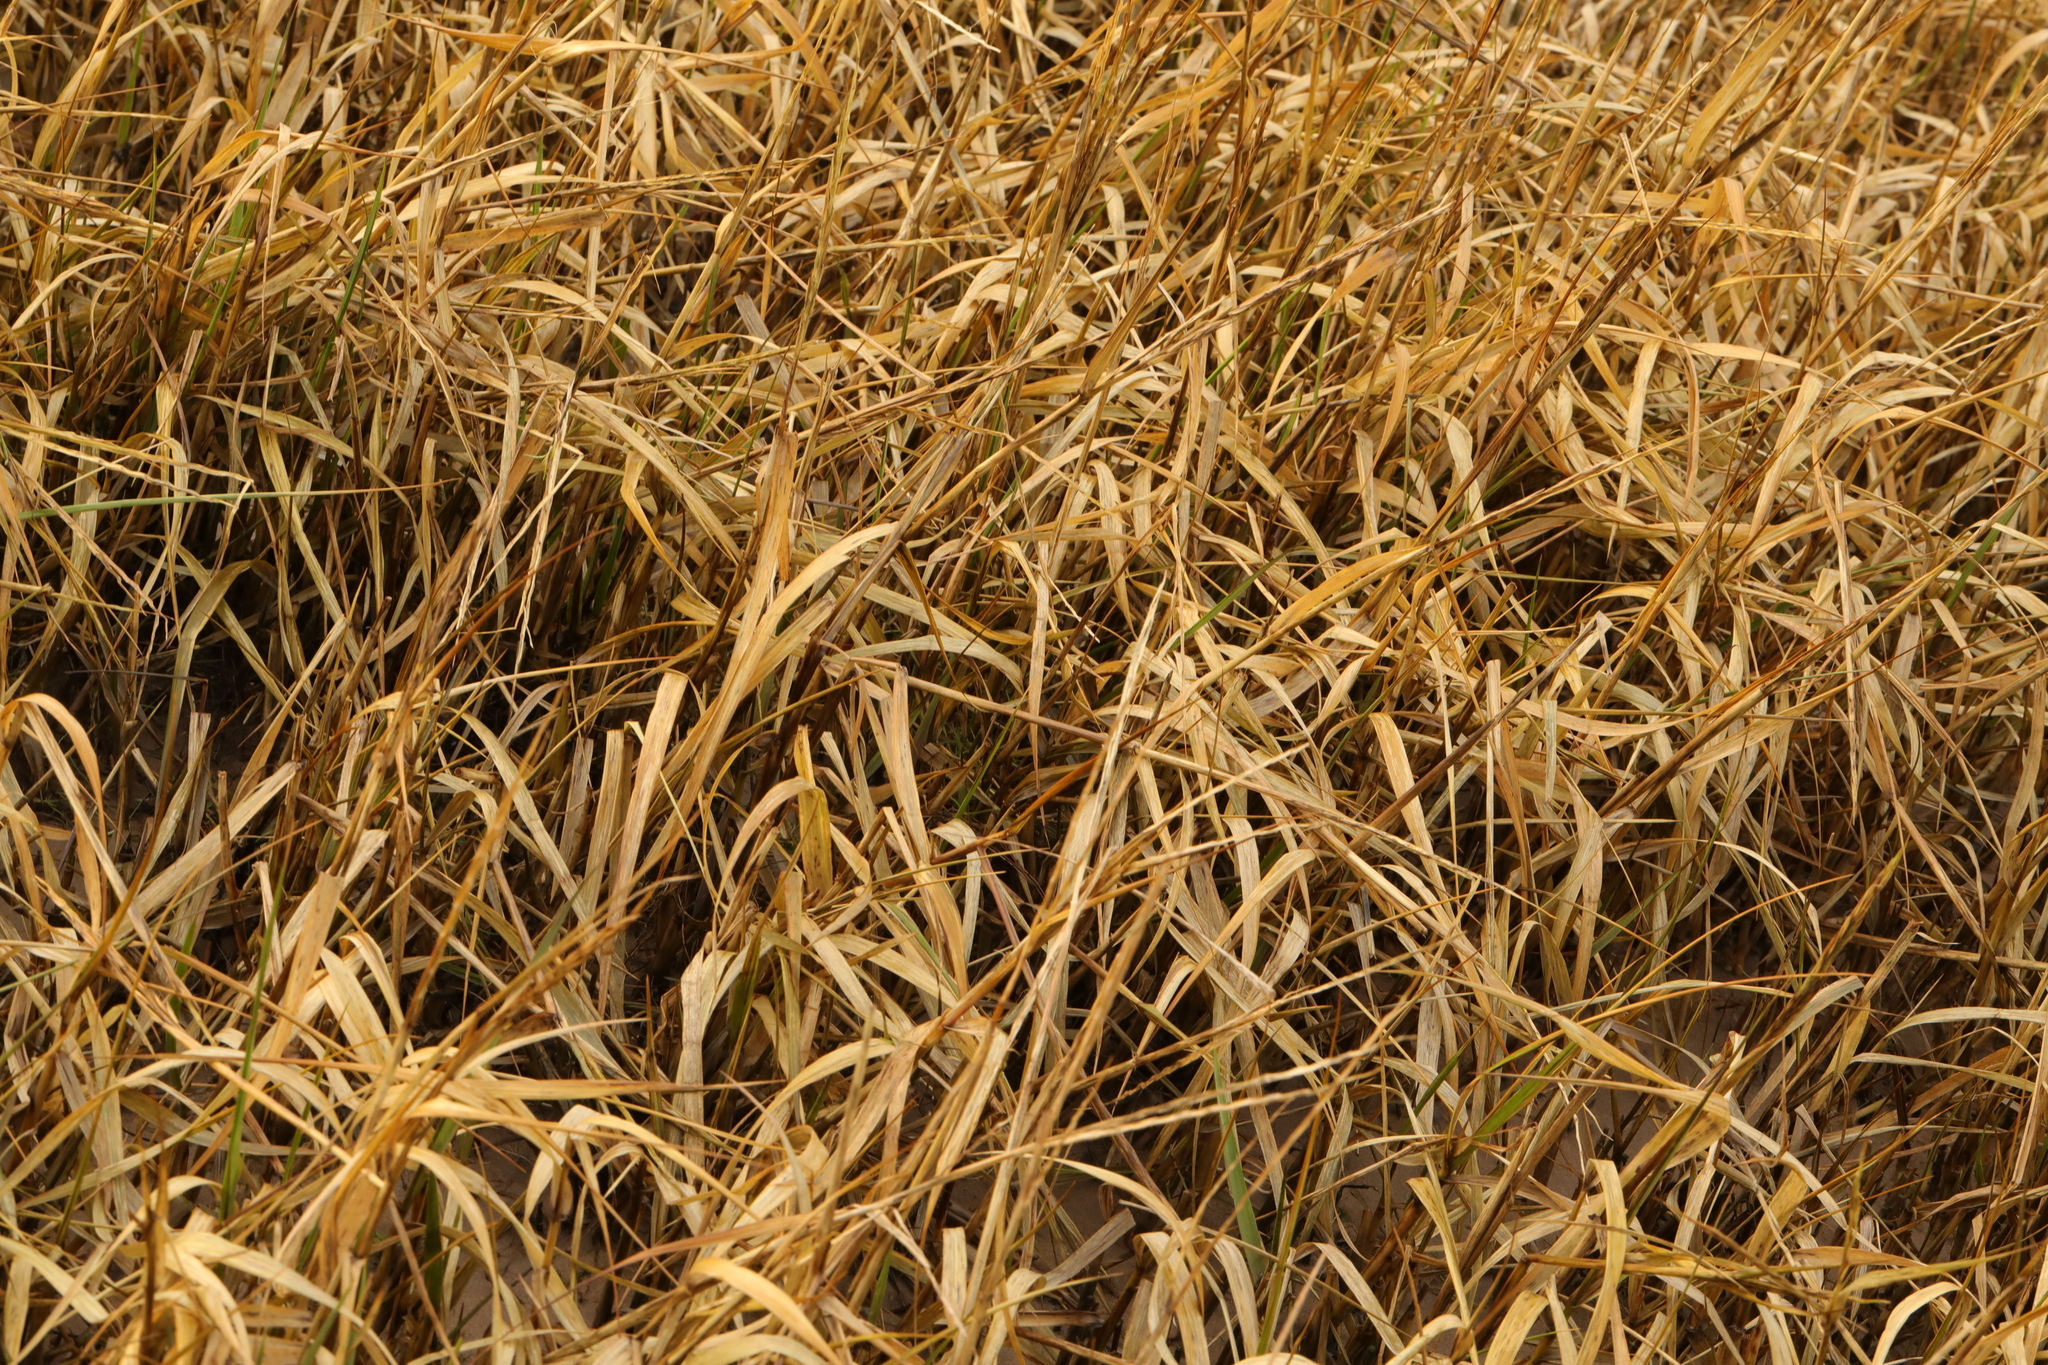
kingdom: Plantae
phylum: Tracheophyta
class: Liliopsida
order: Poales
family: Poaceae
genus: Phalaris
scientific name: Phalaris arundinacea
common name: Reed canary-grass
